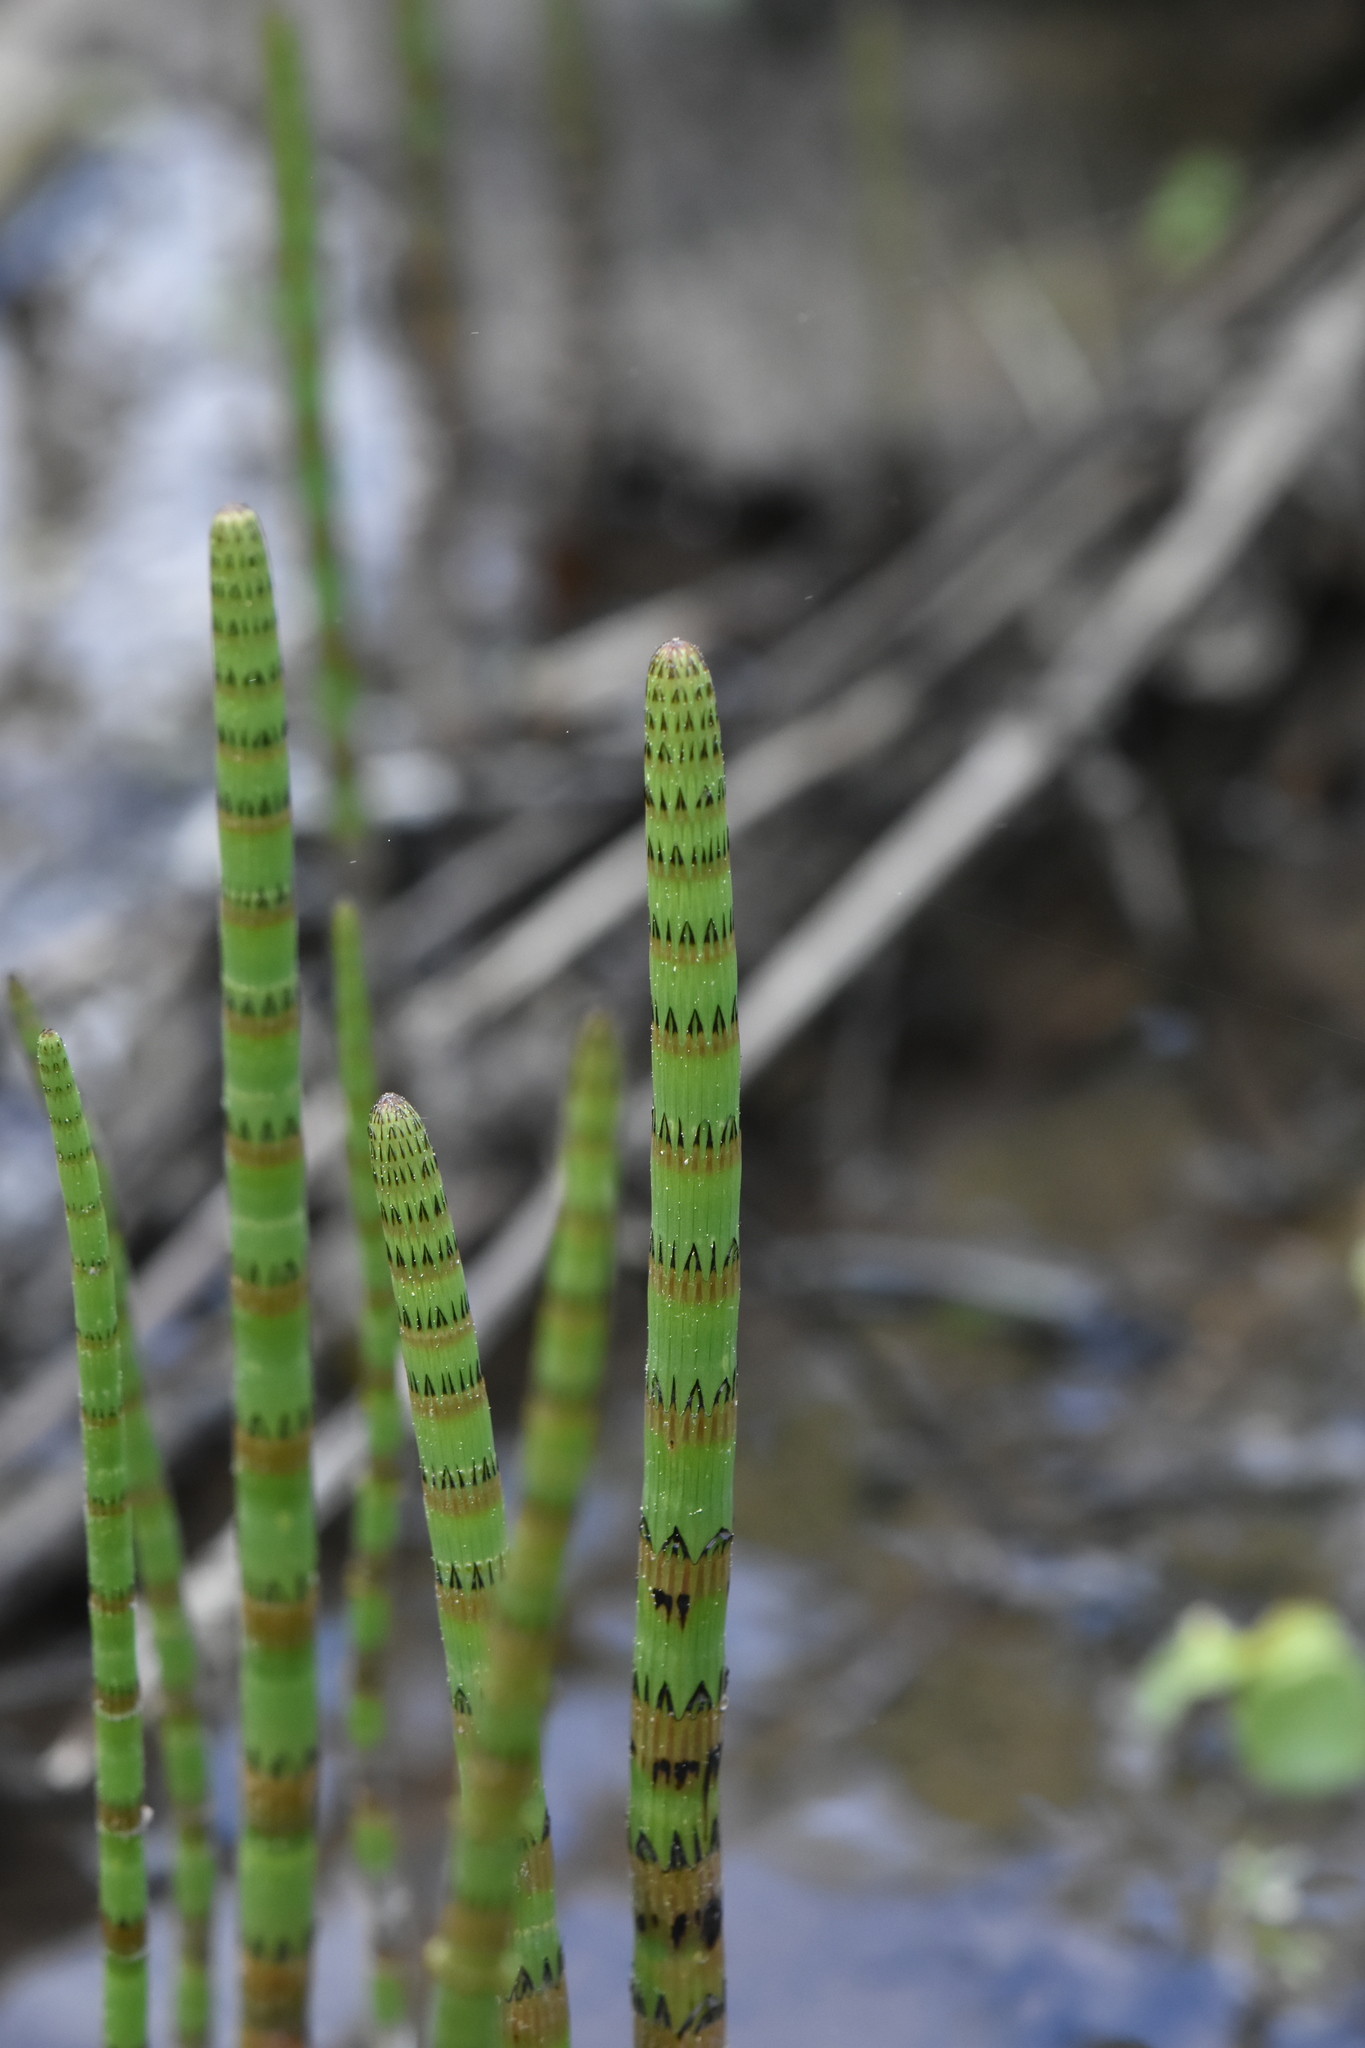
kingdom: Plantae
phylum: Tracheophyta
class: Polypodiopsida
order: Equisetales
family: Equisetaceae
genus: Equisetum
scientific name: Equisetum fluviatile
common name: Water horsetail
